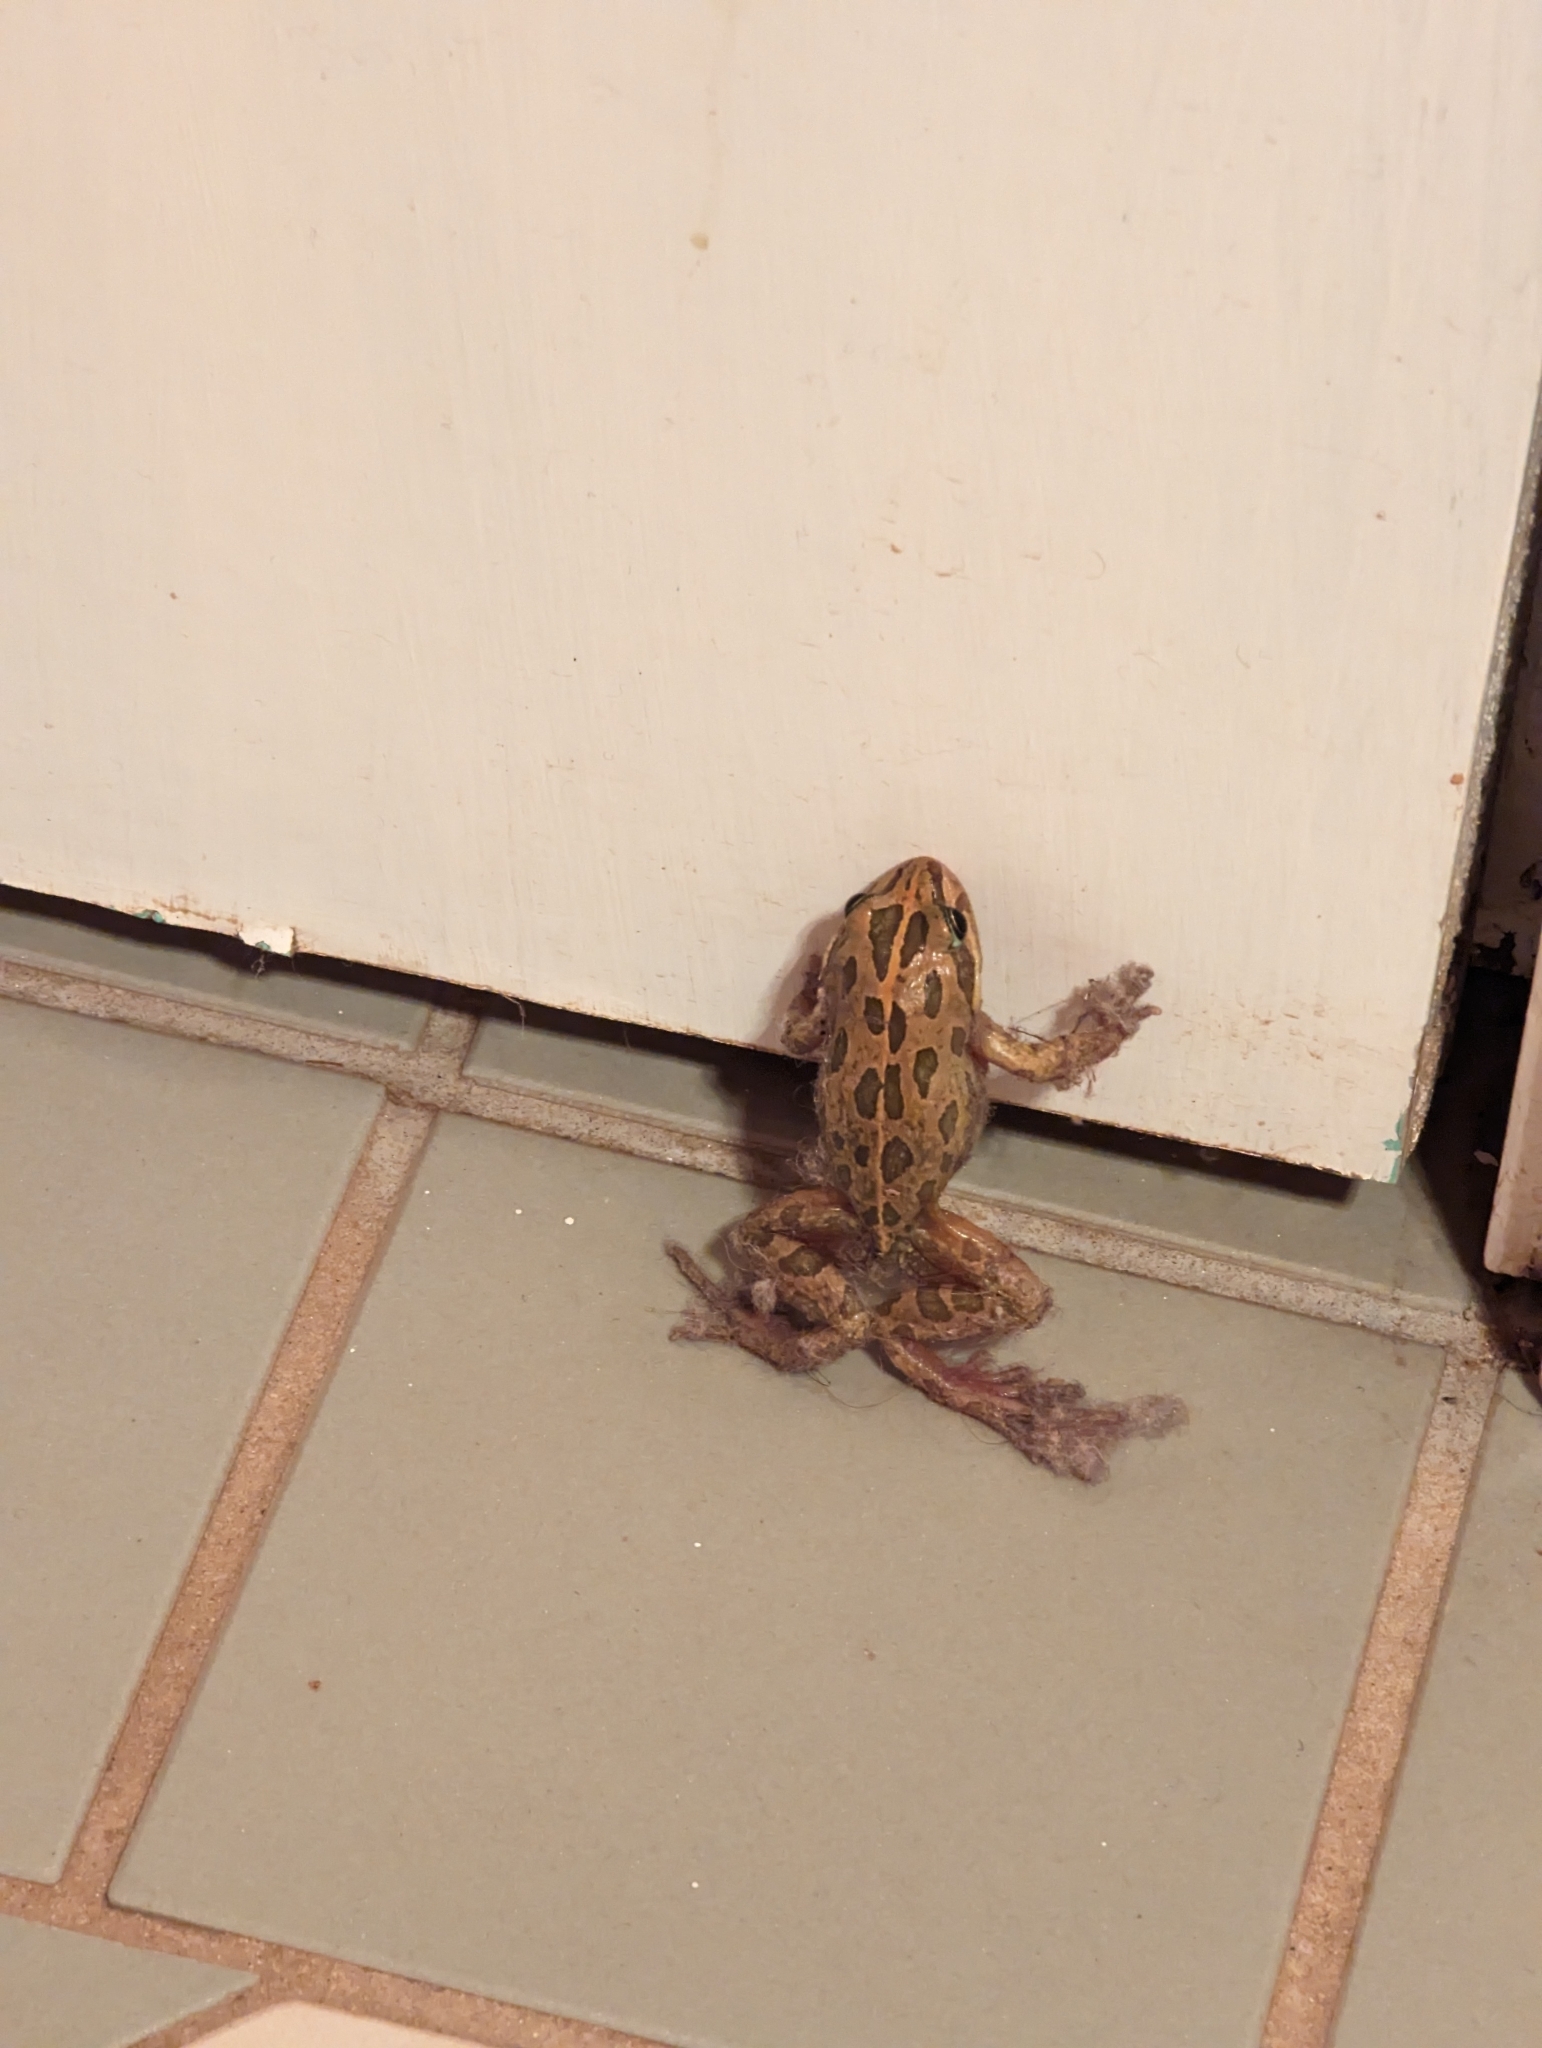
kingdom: Animalia
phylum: Chordata
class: Amphibia
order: Anura
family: Limnodynastidae
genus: Limnodynastes
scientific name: Limnodynastes tasmaniensis
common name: Spotted marsh frog
